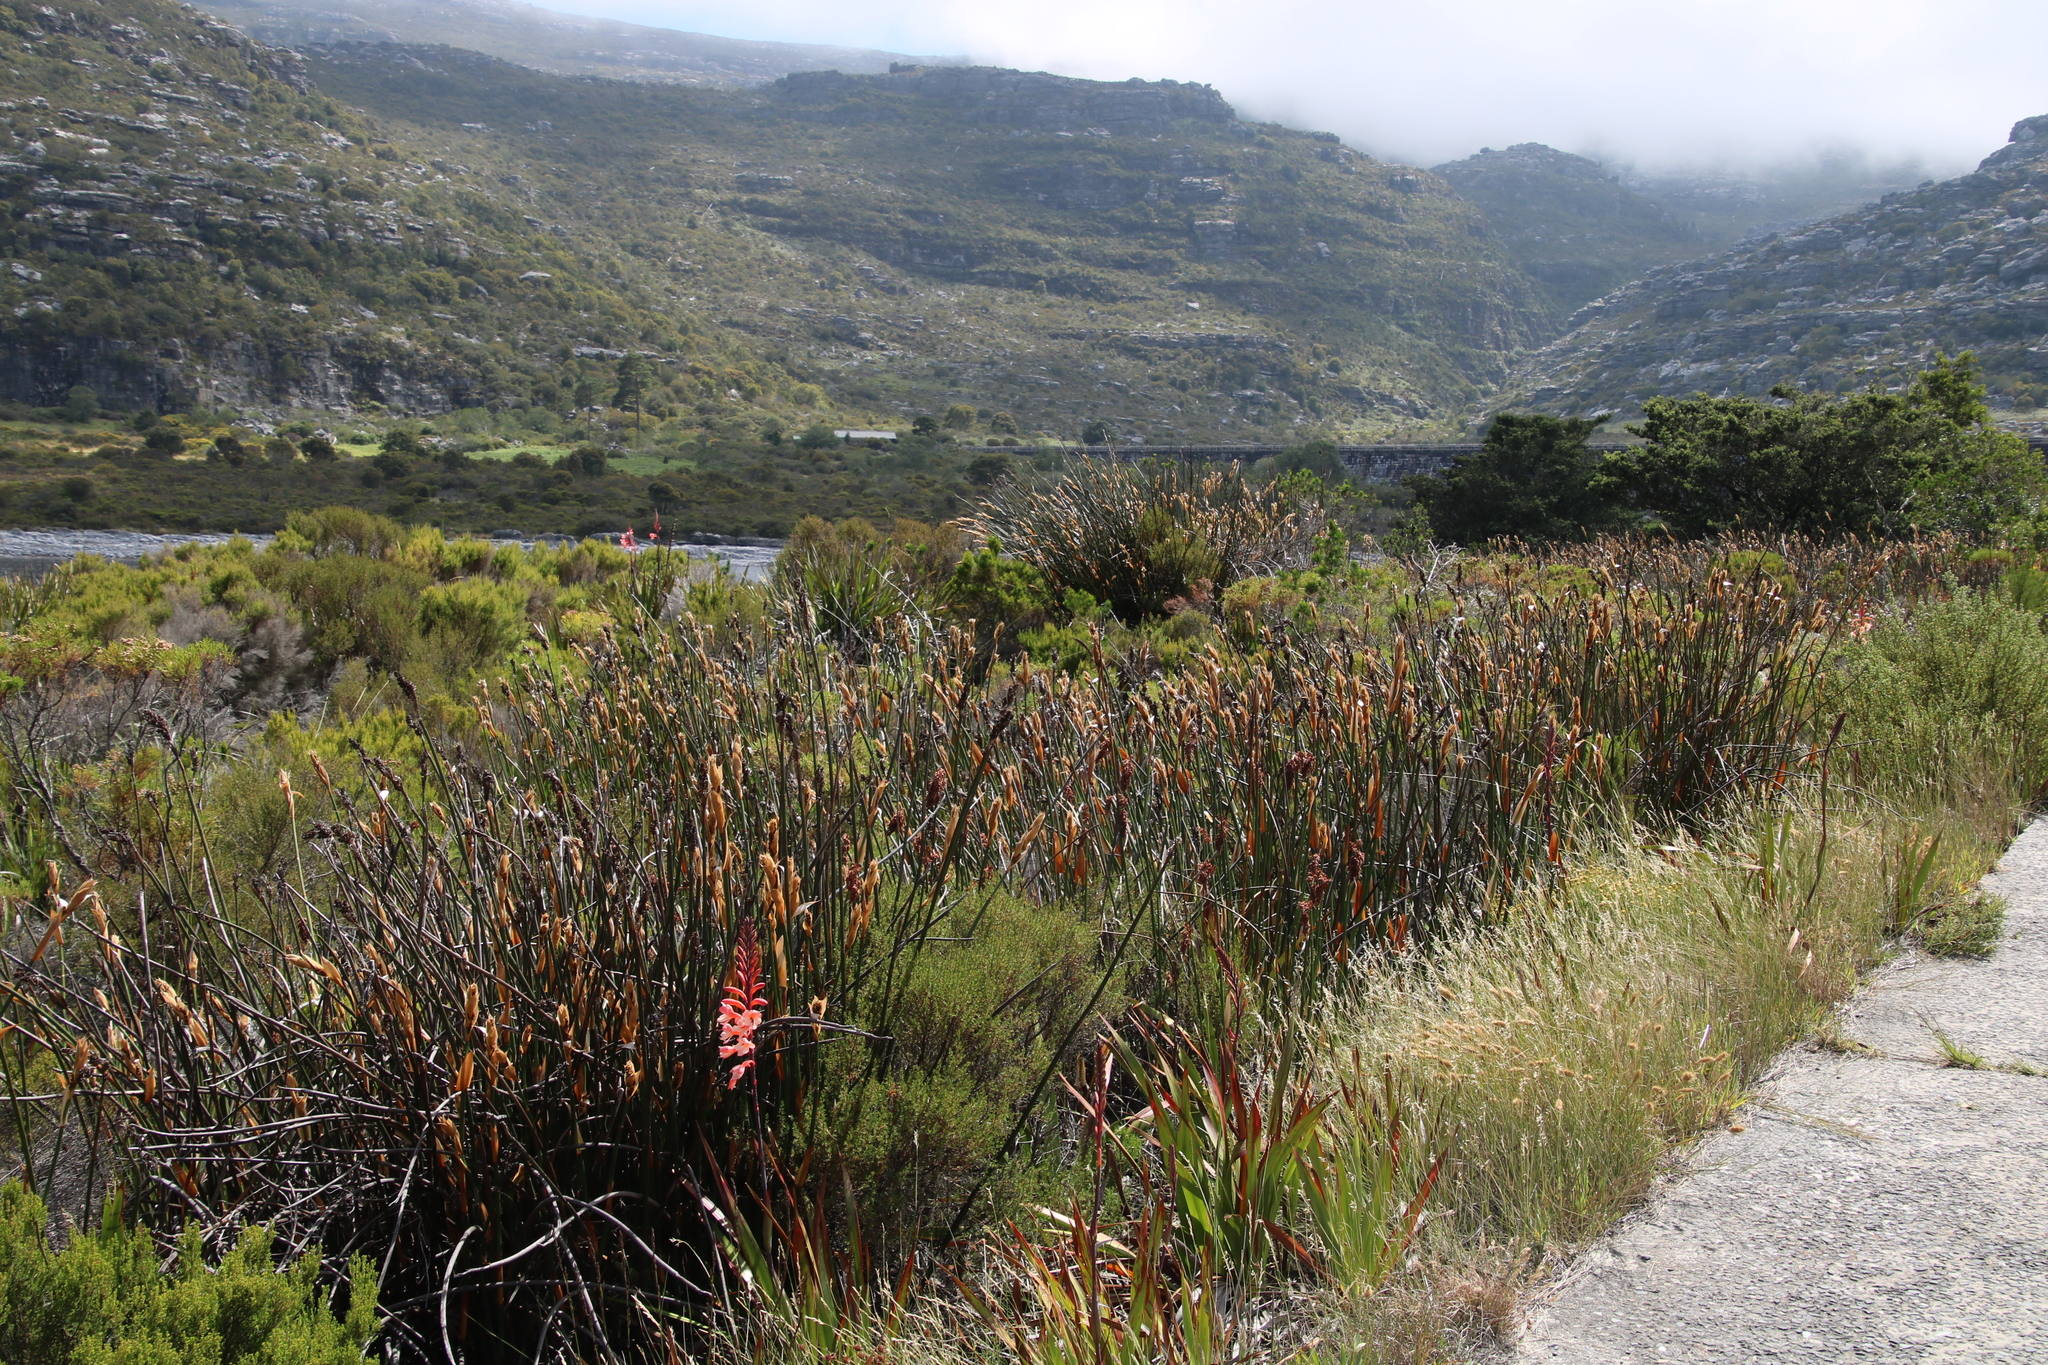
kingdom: Plantae
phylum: Tracheophyta
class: Liliopsida
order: Poales
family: Restionaceae
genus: Elegia
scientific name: Elegia mucronata
